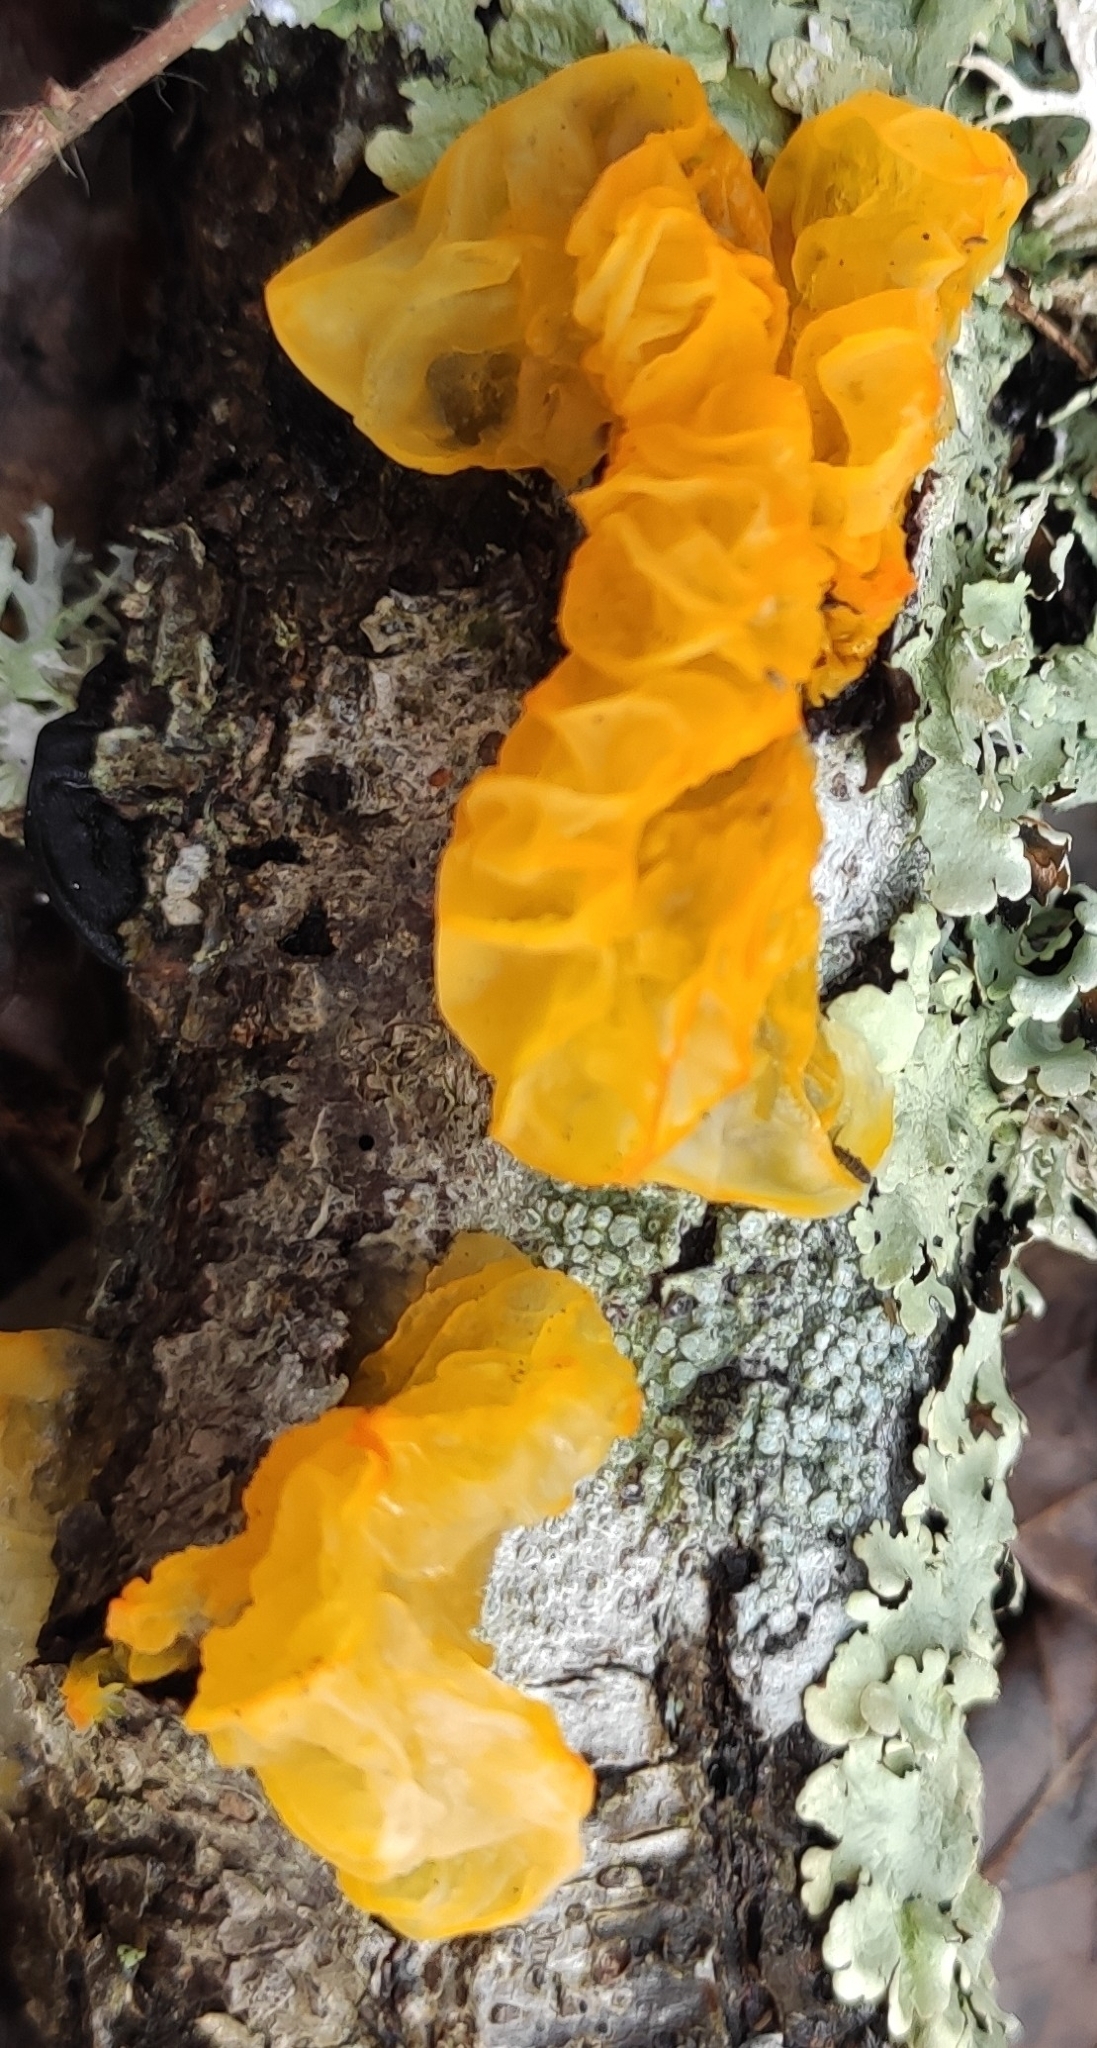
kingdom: Fungi
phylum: Basidiomycota
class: Tremellomycetes
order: Tremellales
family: Tremellaceae
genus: Tremella
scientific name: Tremella mesenterica
